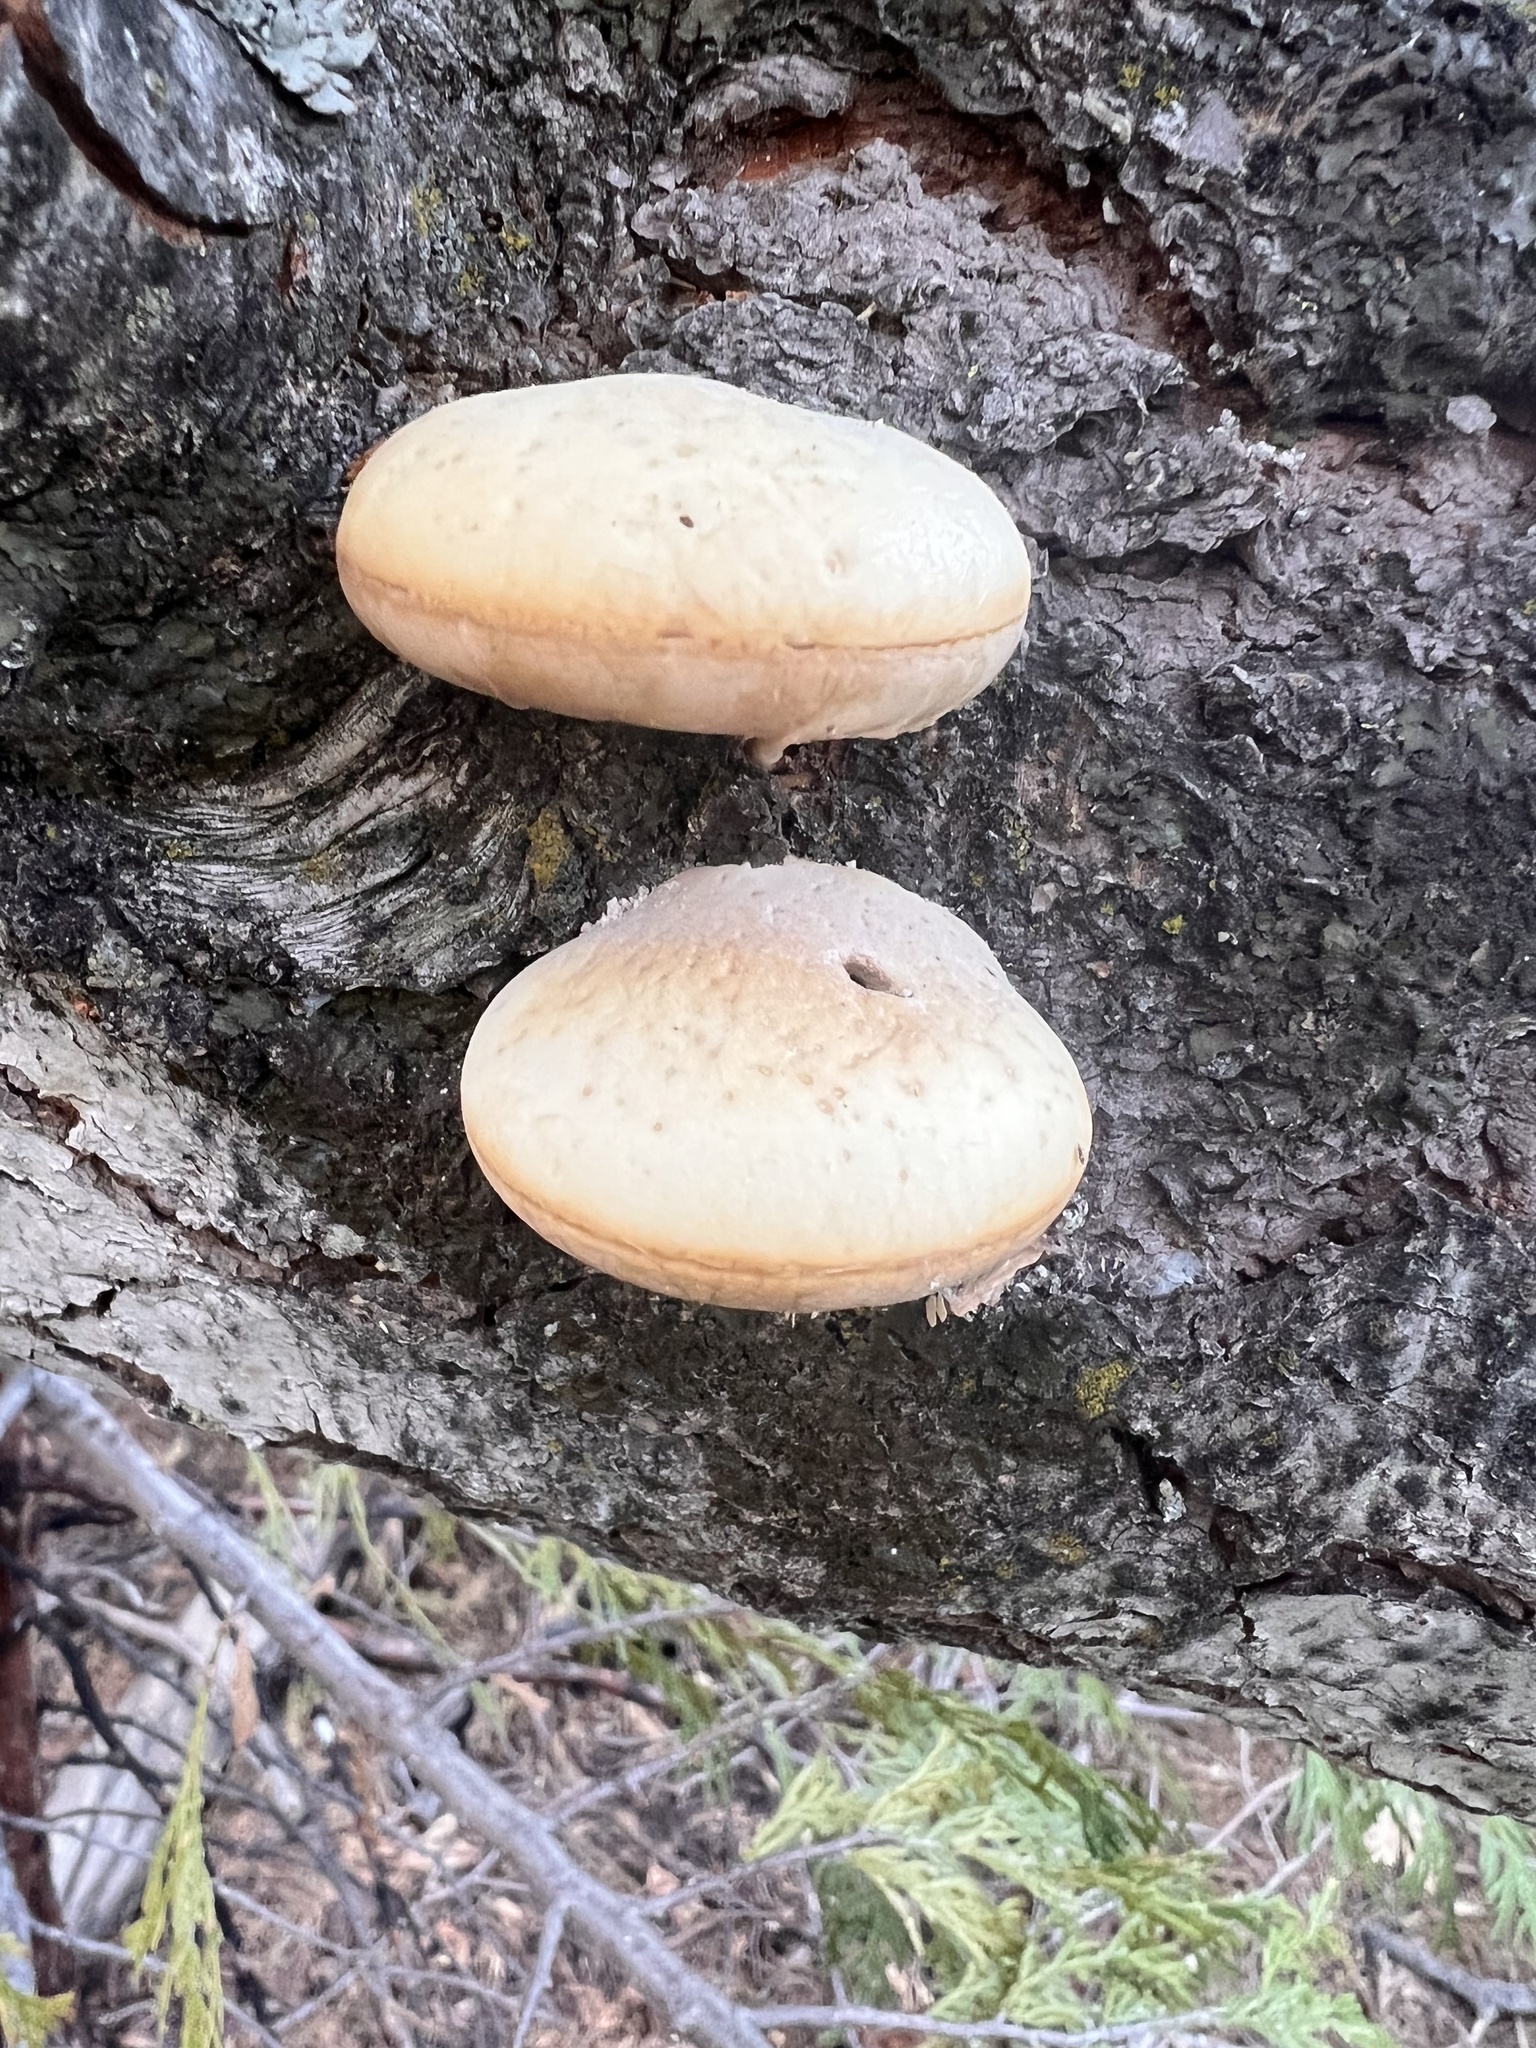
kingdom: Fungi
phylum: Basidiomycota
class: Agaricomycetes
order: Polyporales
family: Polyporaceae
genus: Cryptoporus
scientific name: Cryptoporus volvatus
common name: Veiled polypore
